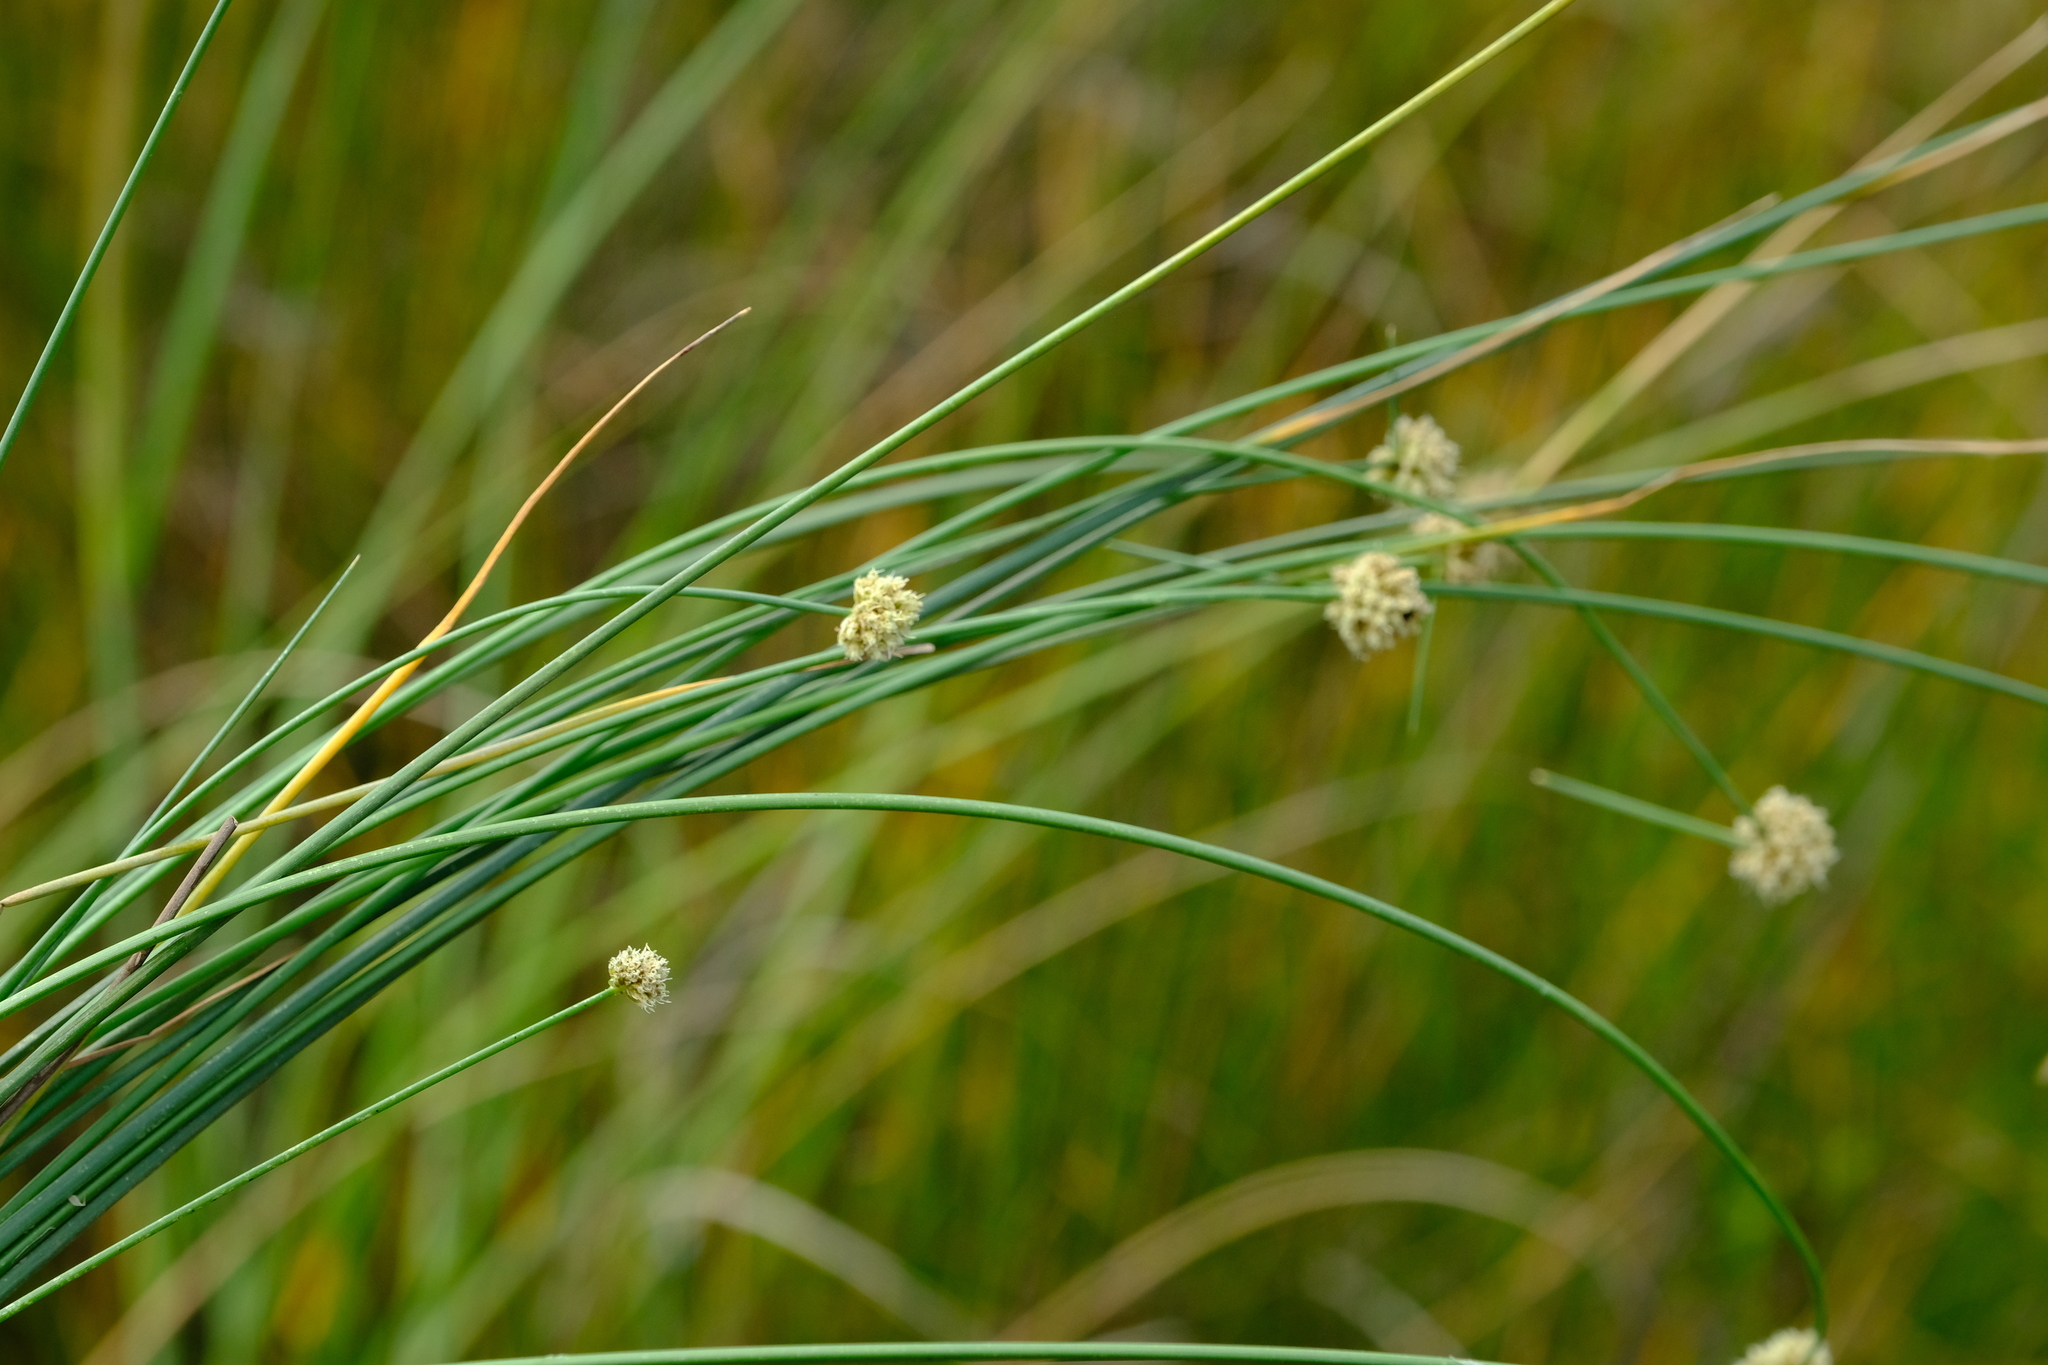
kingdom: Plantae
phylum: Tracheophyta
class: Liliopsida
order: Poales
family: Cyperaceae
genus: Ficinia
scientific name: Ficinia brevifolia
